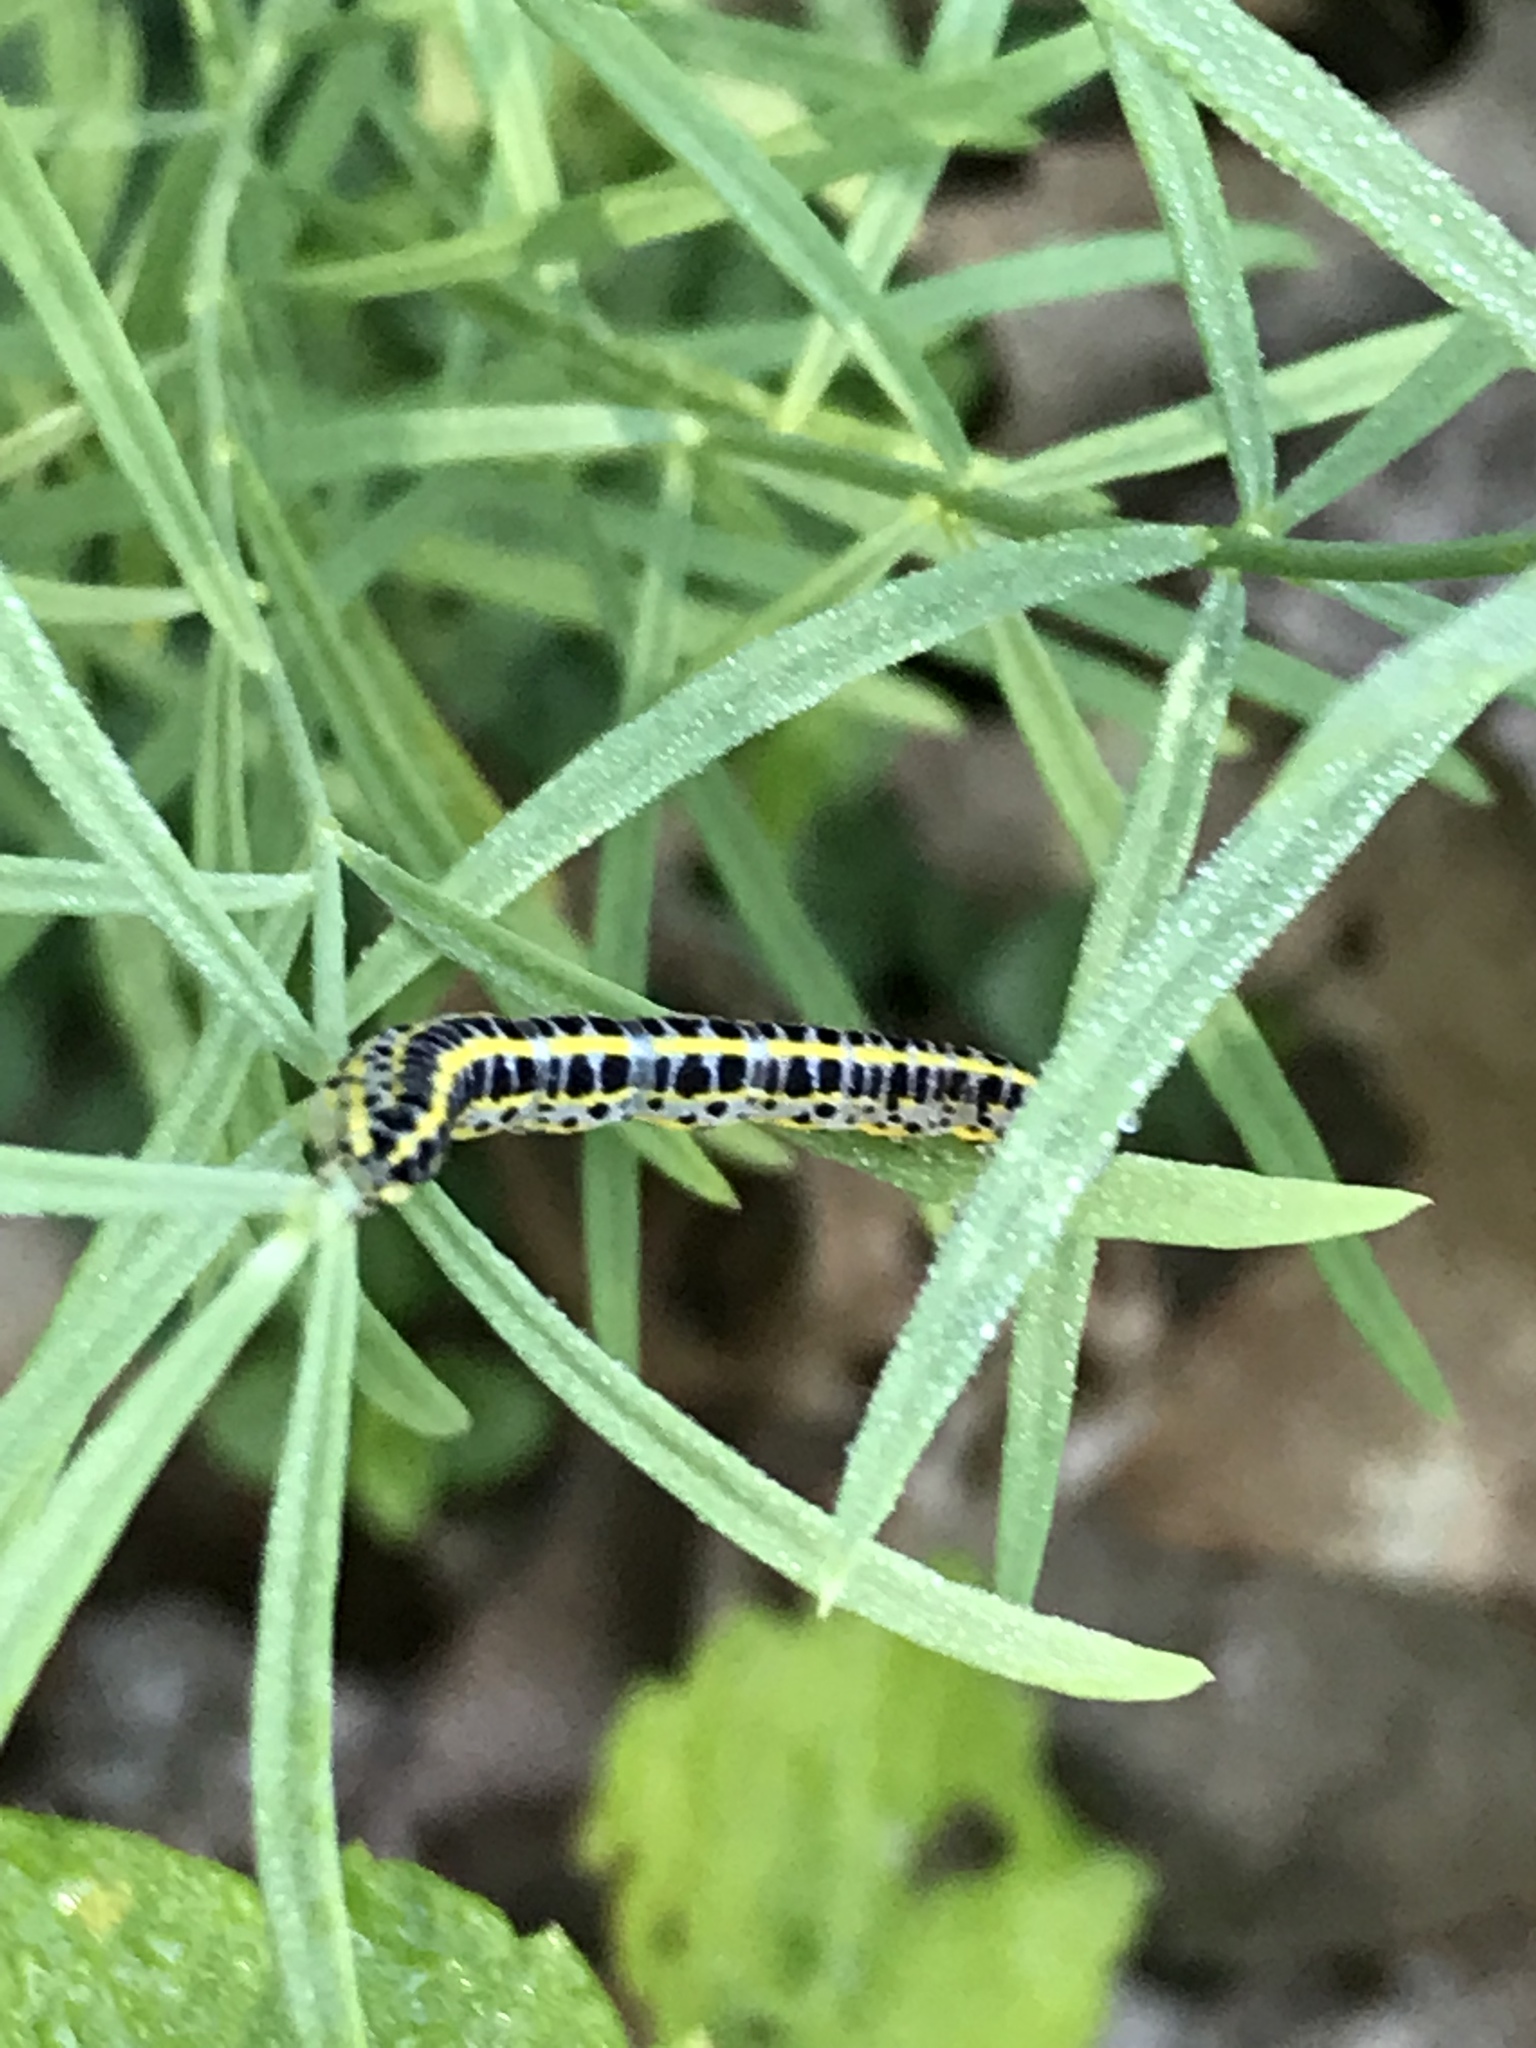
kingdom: Animalia
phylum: Arthropoda
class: Insecta
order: Lepidoptera
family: Noctuidae
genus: Calophasia
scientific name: Calophasia lunula
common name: Toadflax brocade
